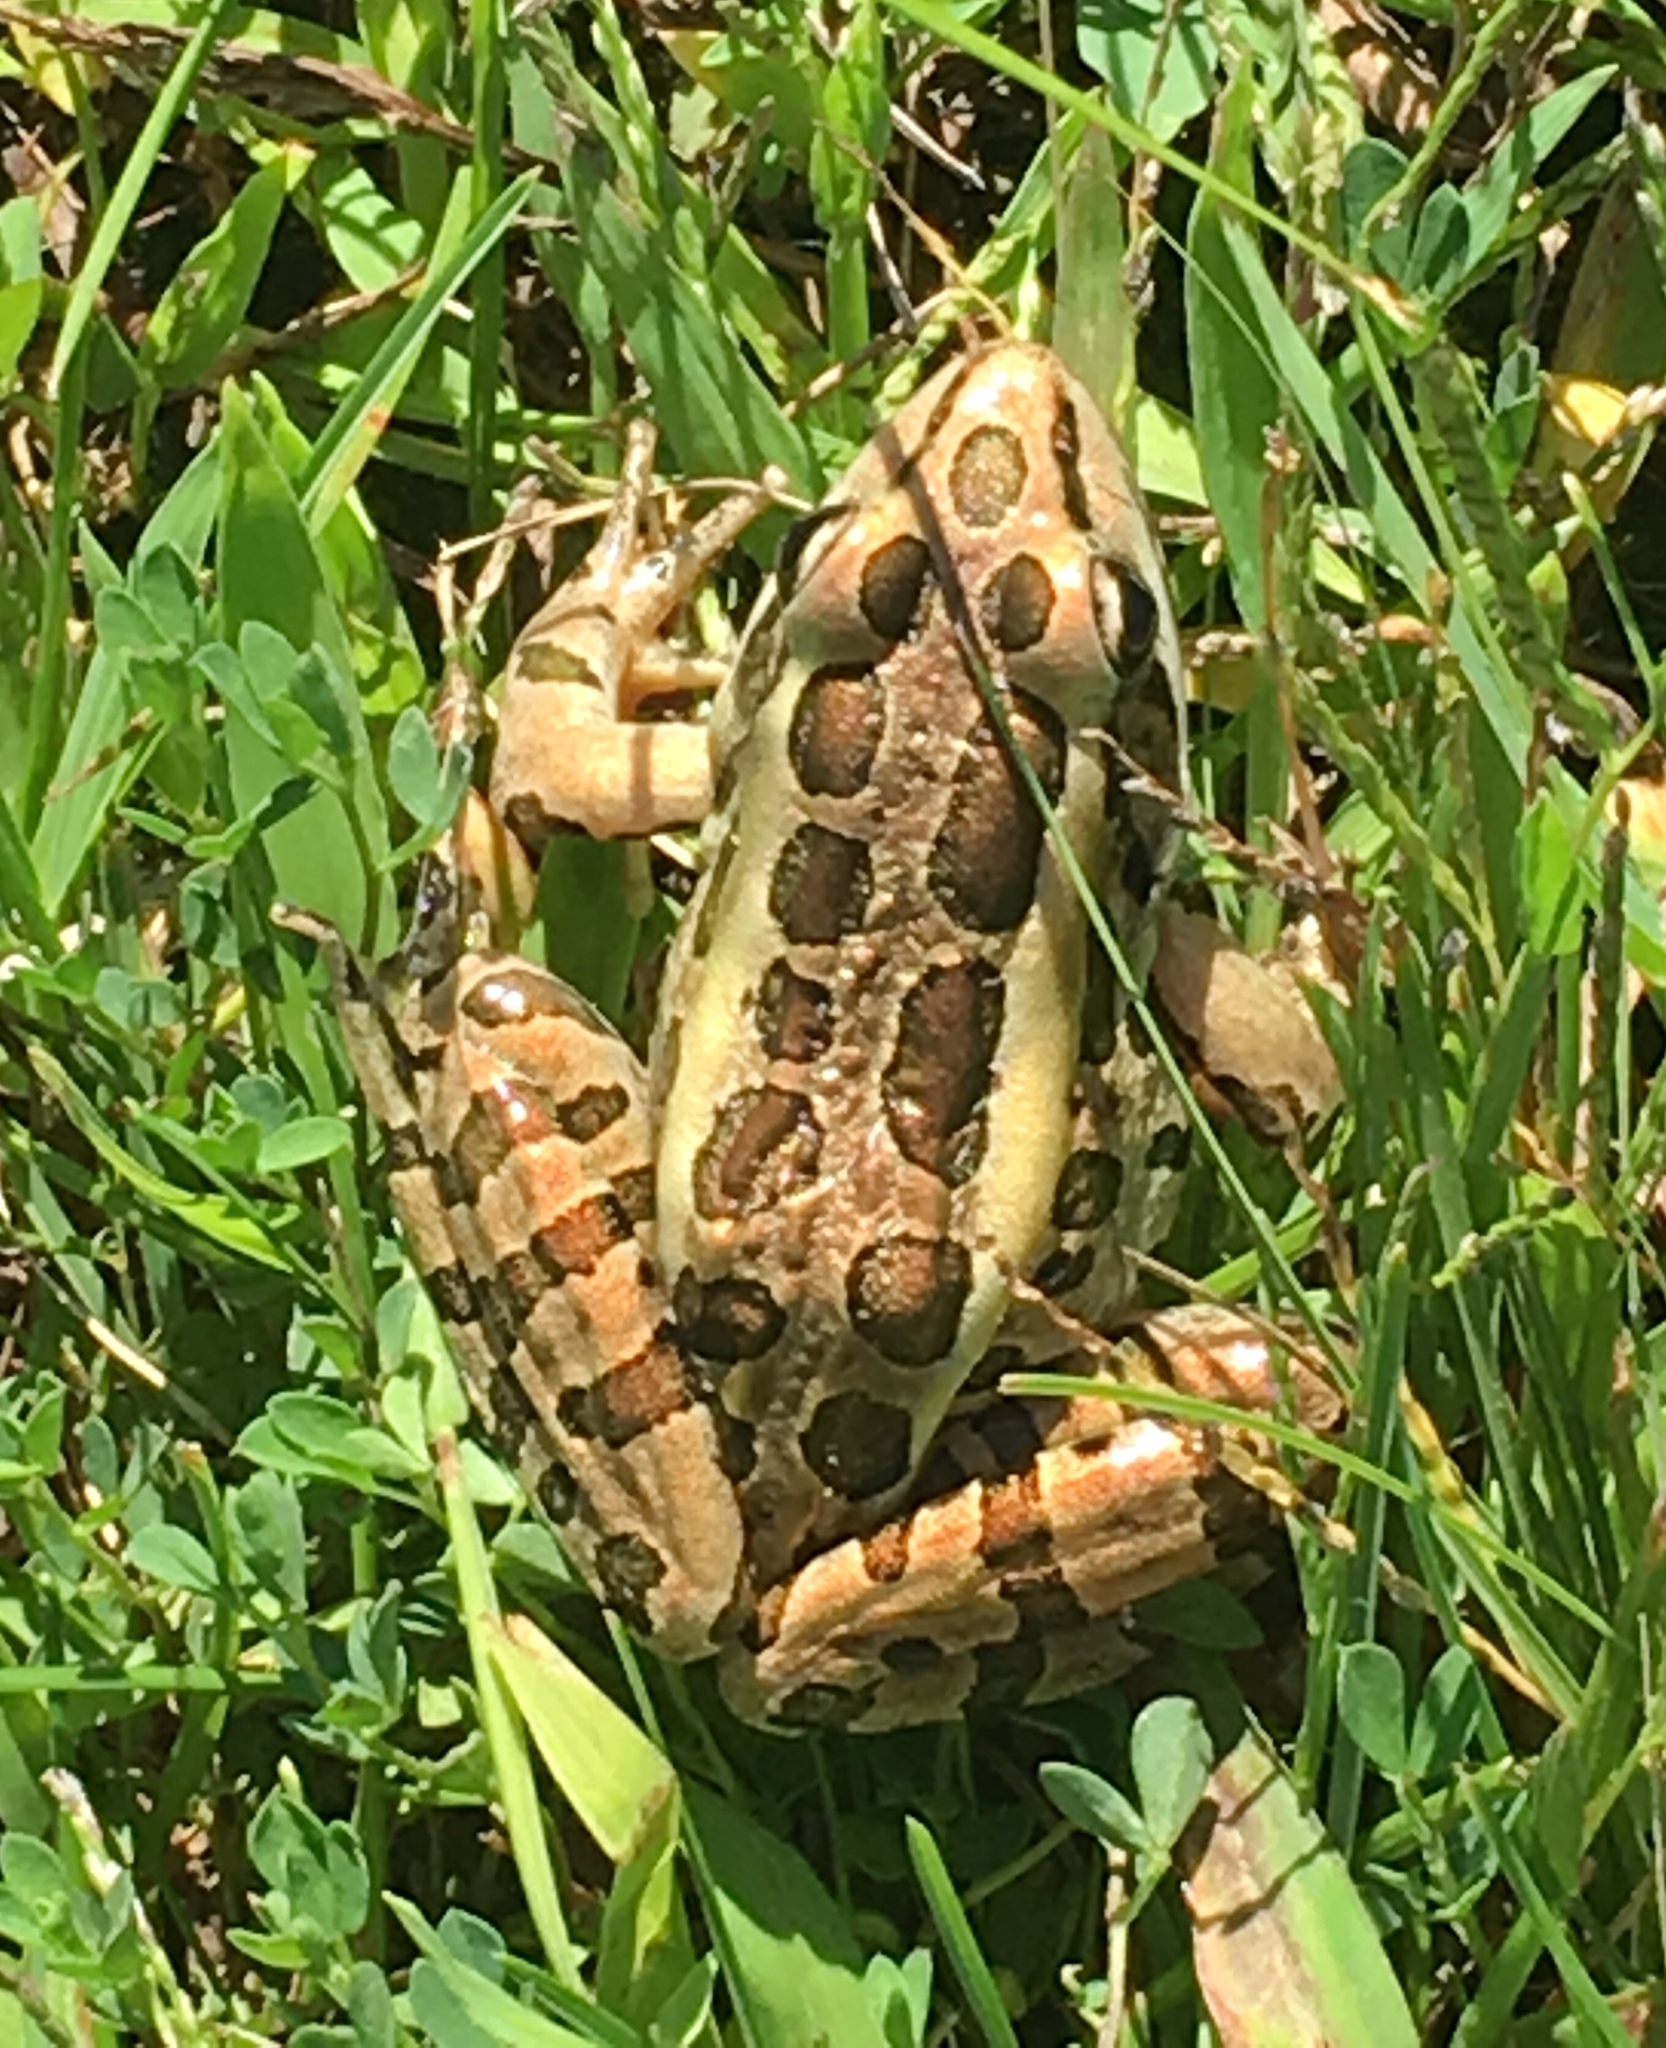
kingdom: Animalia
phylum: Chordata
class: Amphibia
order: Anura
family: Ranidae
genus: Lithobates
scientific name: Lithobates palustris
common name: Pickerel frog
